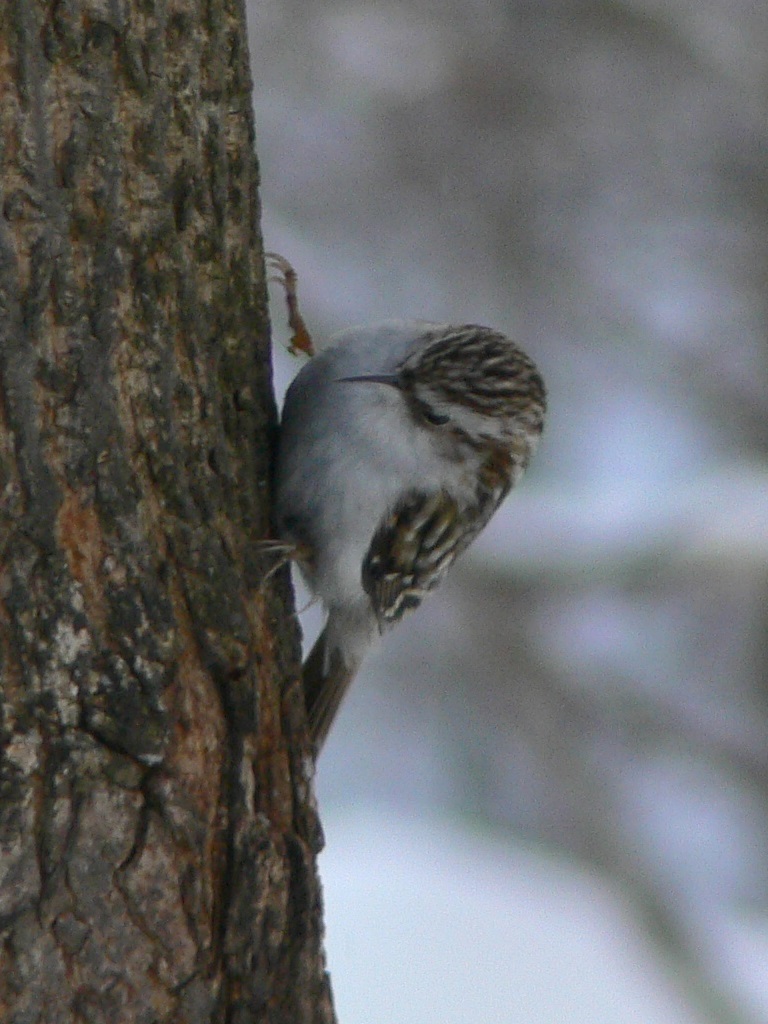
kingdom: Animalia
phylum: Chordata
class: Aves
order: Passeriformes
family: Certhiidae
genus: Certhia
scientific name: Certhia familiaris
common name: Eurasian treecreeper
